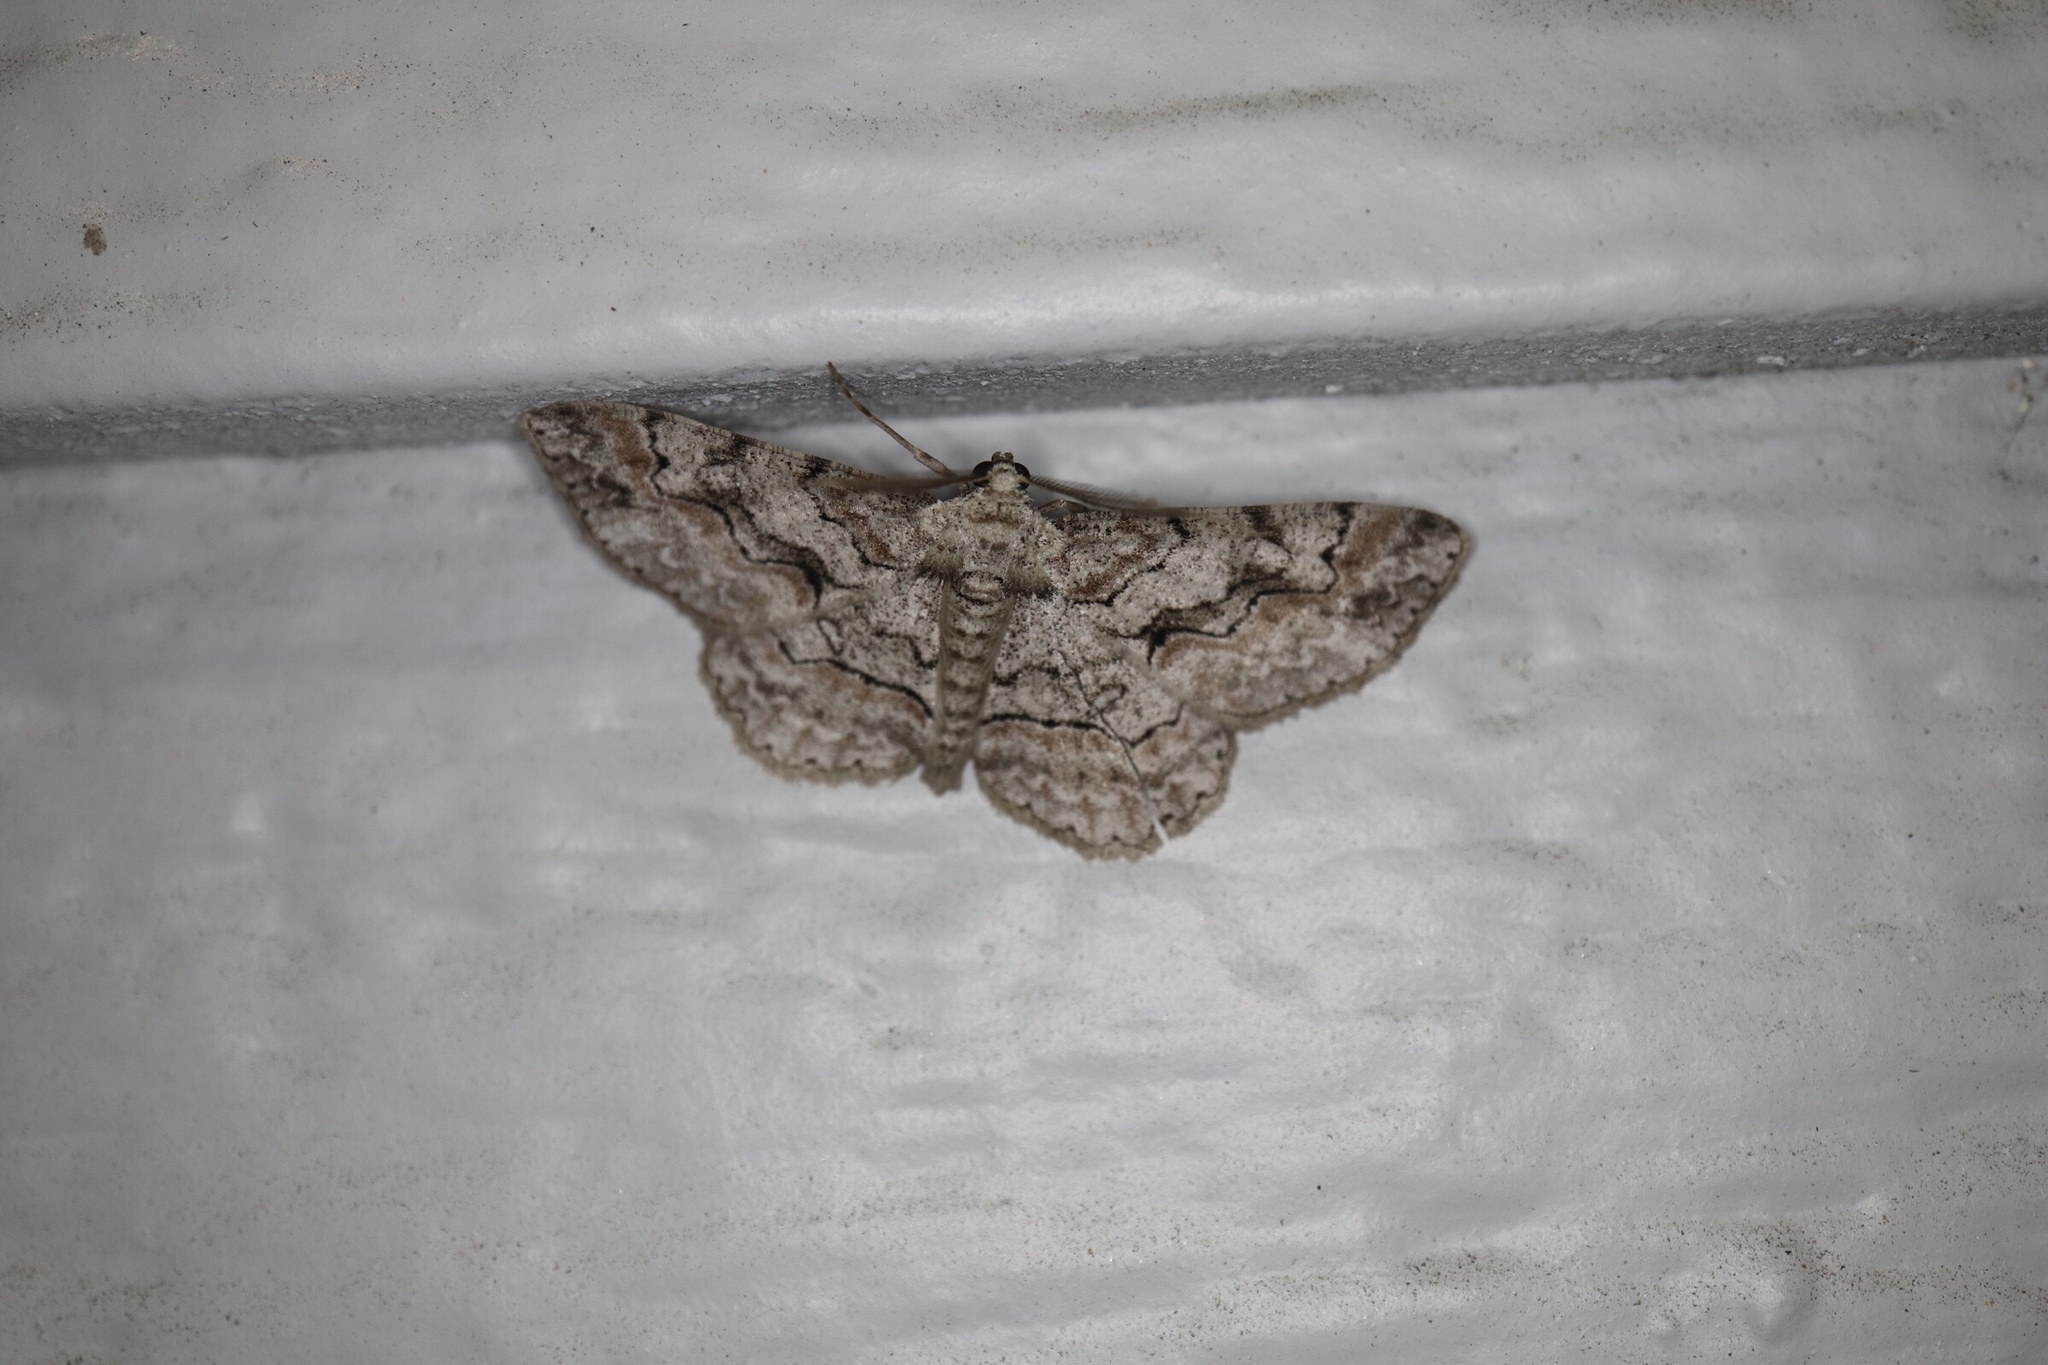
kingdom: Animalia
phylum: Arthropoda
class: Insecta
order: Lepidoptera
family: Geometridae
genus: Iridopsis
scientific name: Iridopsis defectaria
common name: Brown-shaded gray
